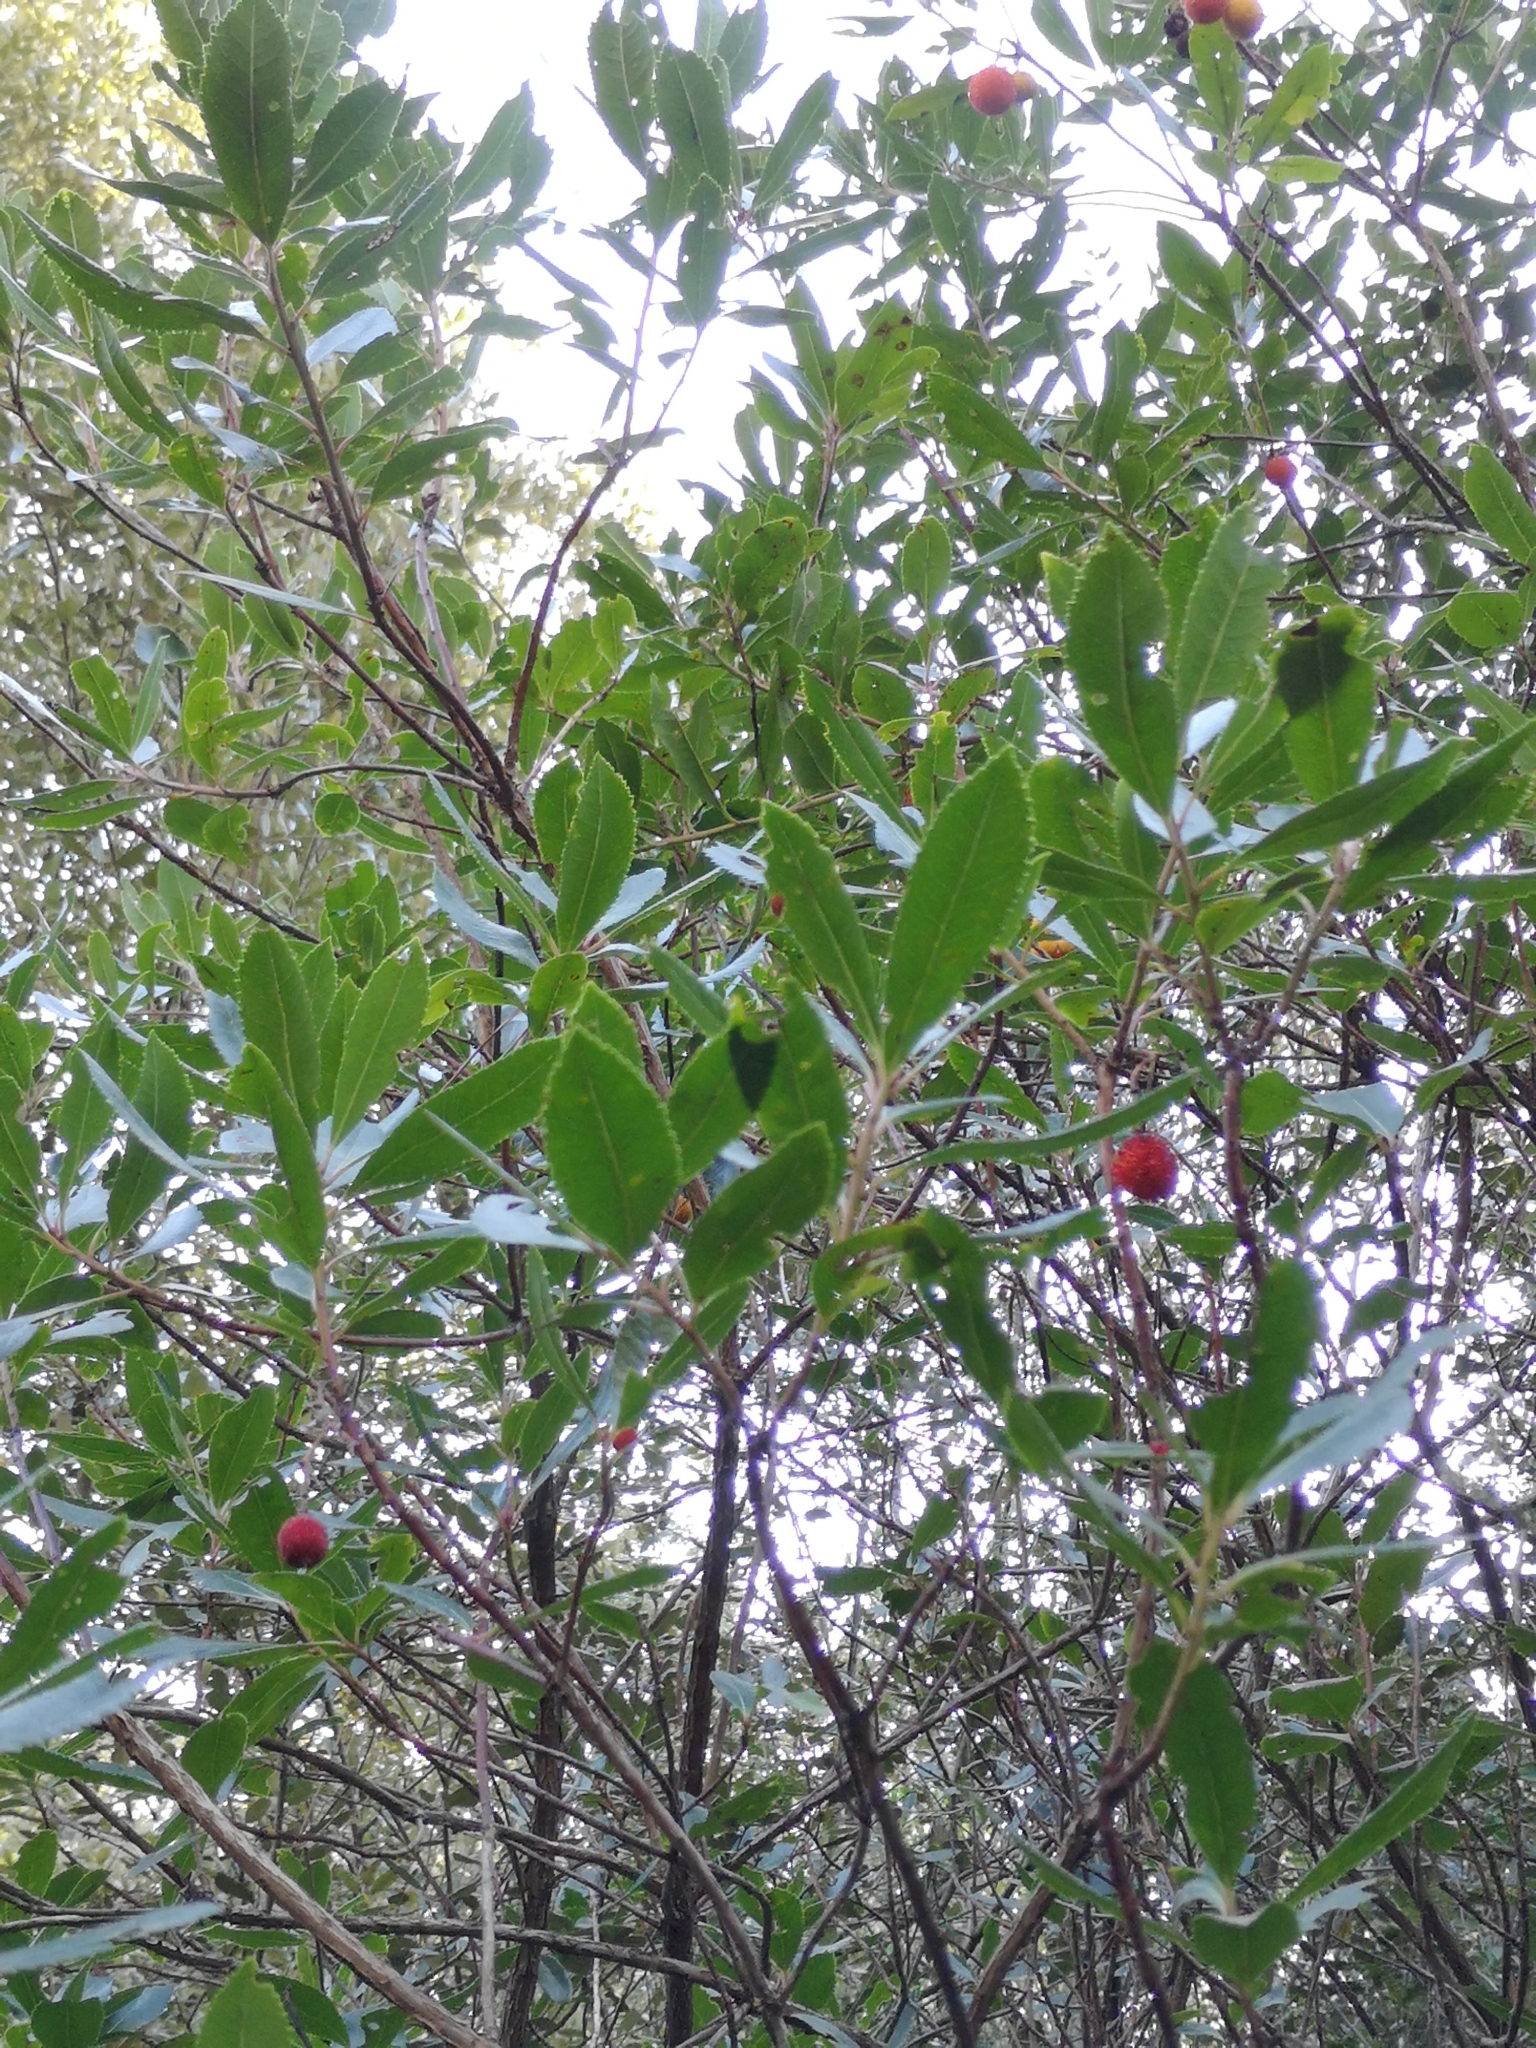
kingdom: Plantae
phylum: Tracheophyta
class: Magnoliopsida
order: Ericales
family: Ericaceae
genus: Arbutus
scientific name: Arbutus unedo
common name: Strawberry-tree
